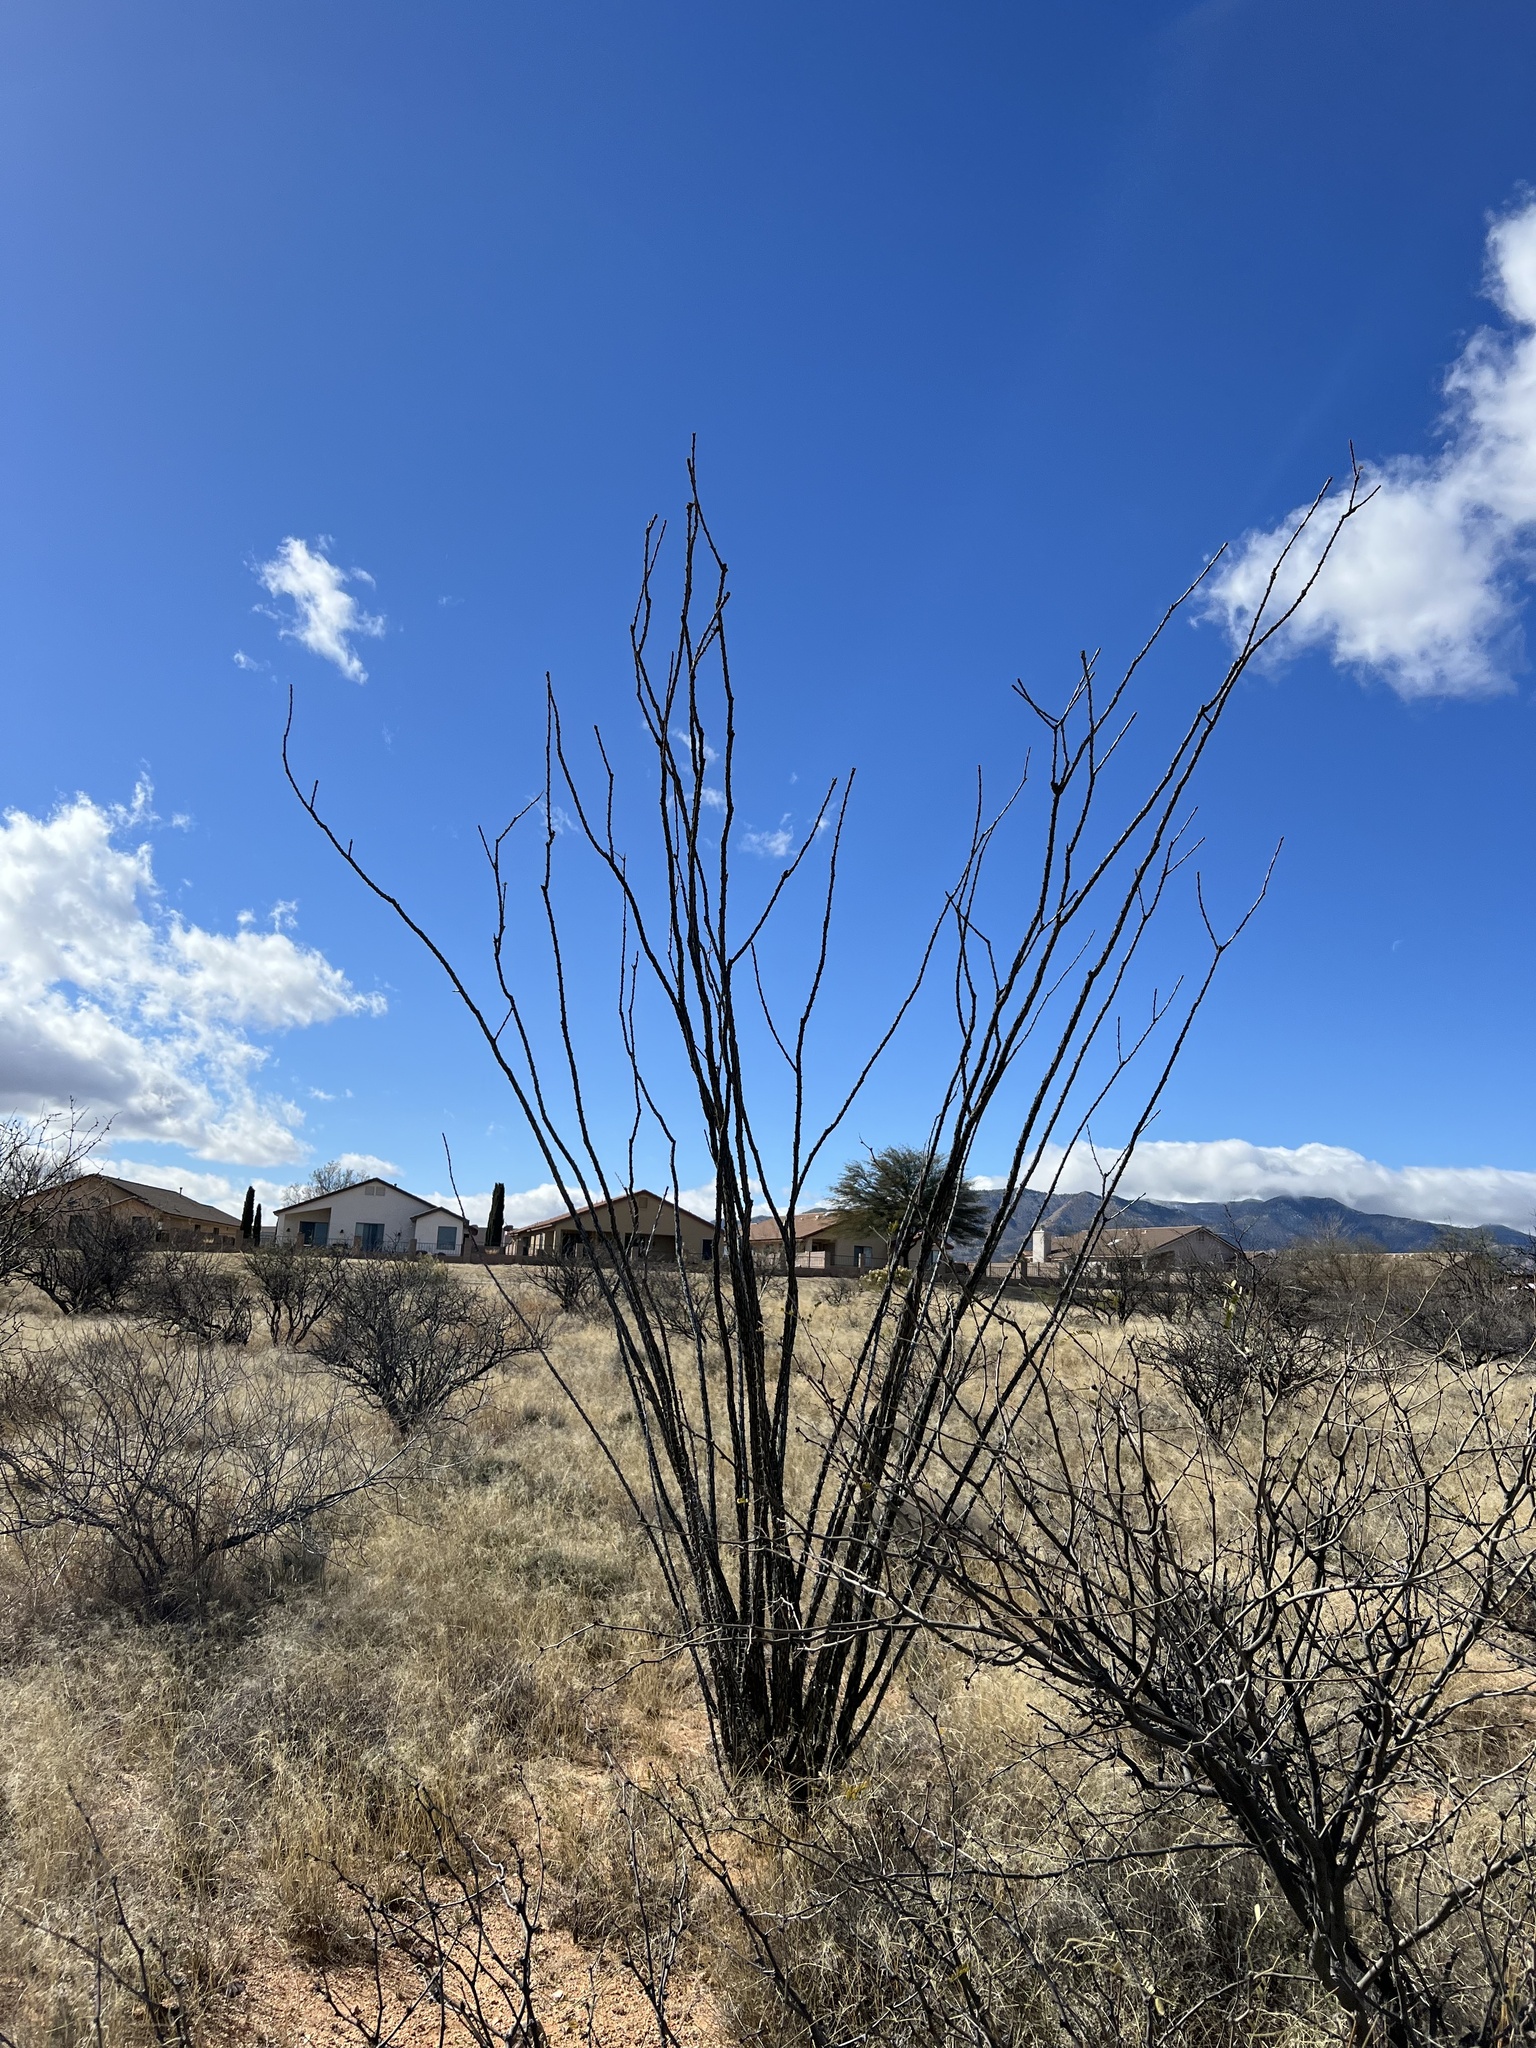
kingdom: Plantae
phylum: Tracheophyta
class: Magnoliopsida
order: Ericales
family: Fouquieriaceae
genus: Fouquieria
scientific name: Fouquieria splendens
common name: Vine-cactus
